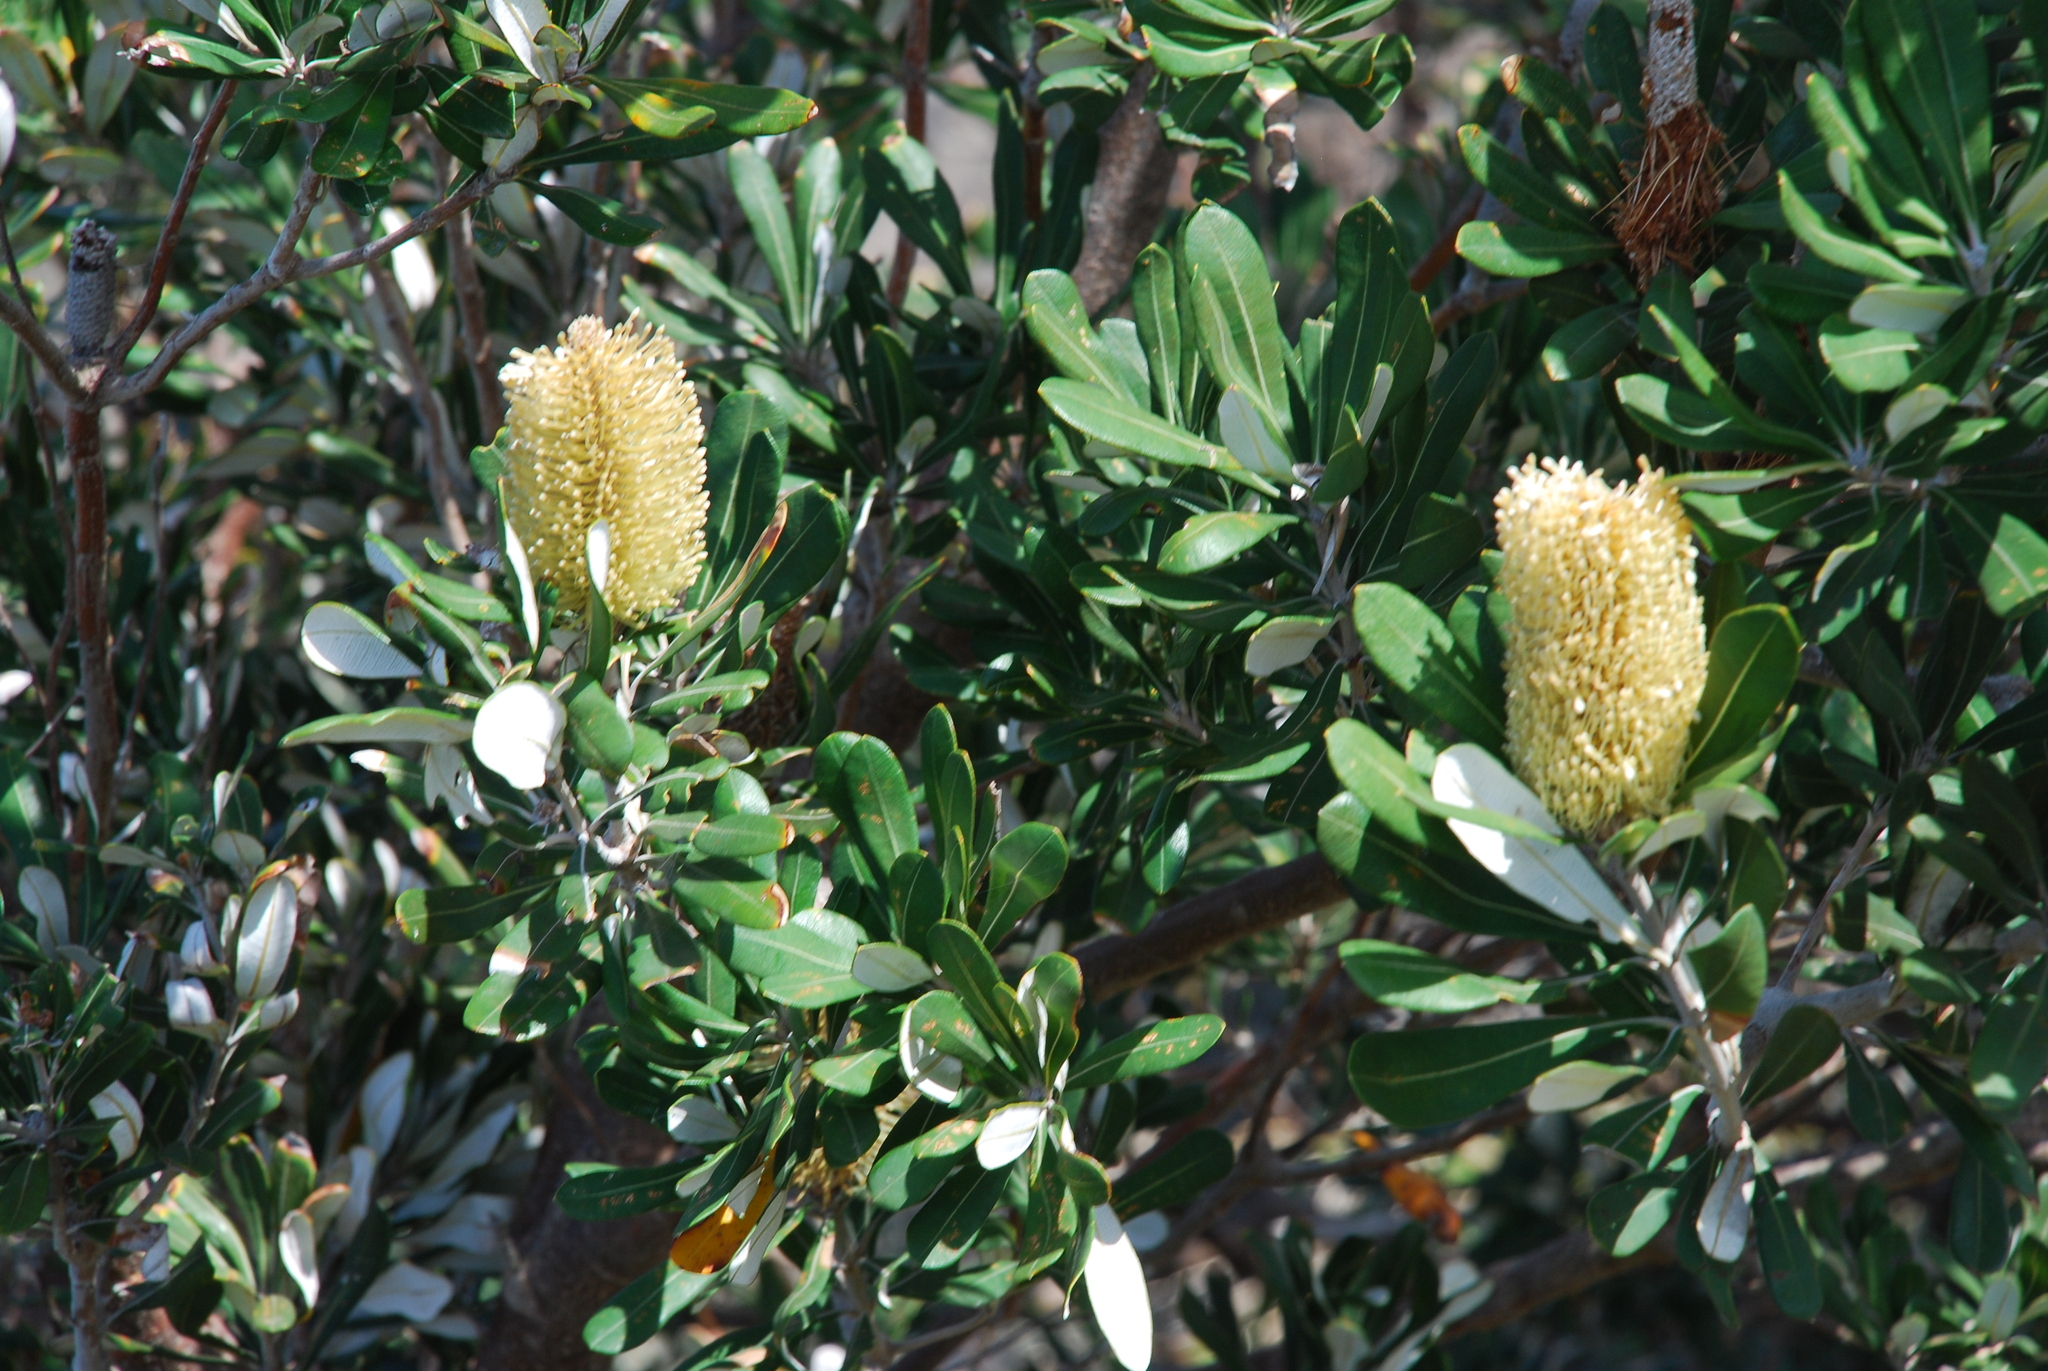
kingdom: Plantae
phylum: Tracheophyta
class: Magnoliopsida
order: Proteales
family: Proteaceae
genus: Banksia
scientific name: Banksia integrifolia
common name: White-honeysuckle
